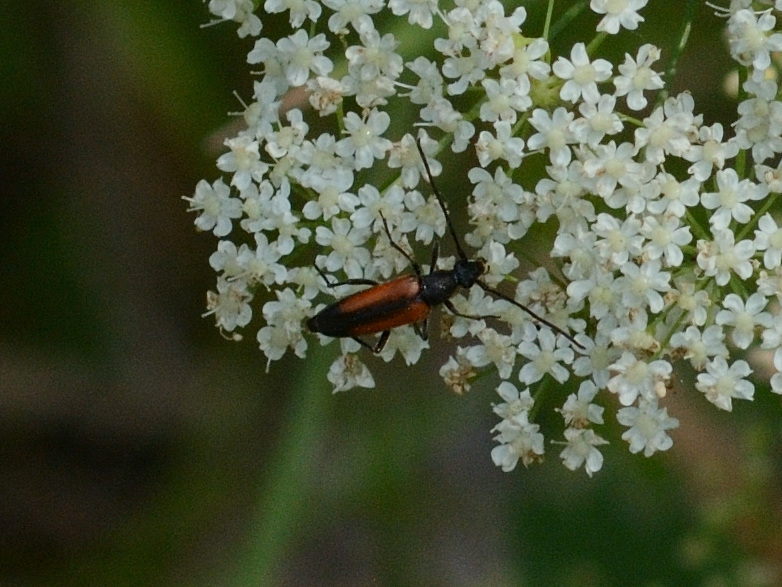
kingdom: Animalia
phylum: Arthropoda
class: Insecta
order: Coleoptera
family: Cerambycidae
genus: Stenurella
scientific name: Stenurella melanura
